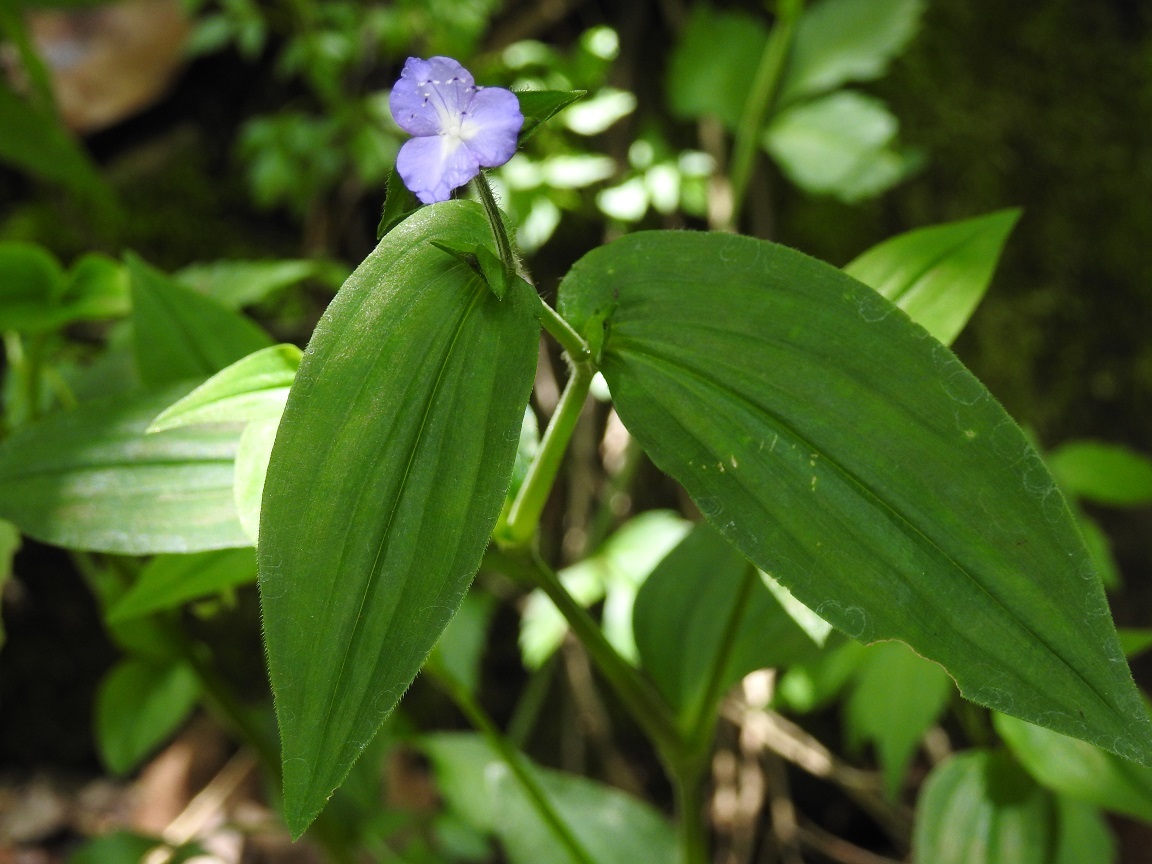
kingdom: Plantae
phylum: Tracheophyta
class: Liliopsida
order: Commelinales
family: Commelinaceae
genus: Tradescantia
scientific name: Tradescantia commelinoides
